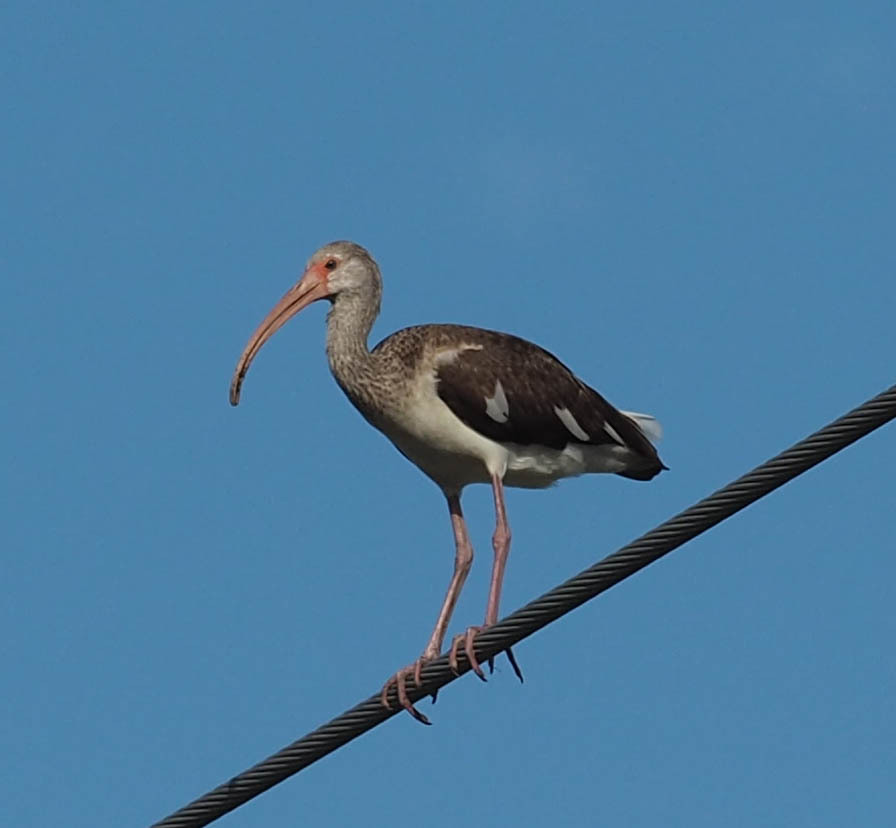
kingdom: Animalia
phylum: Chordata
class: Aves
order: Pelecaniformes
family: Threskiornithidae
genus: Eudocimus
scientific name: Eudocimus albus
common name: White ibis
